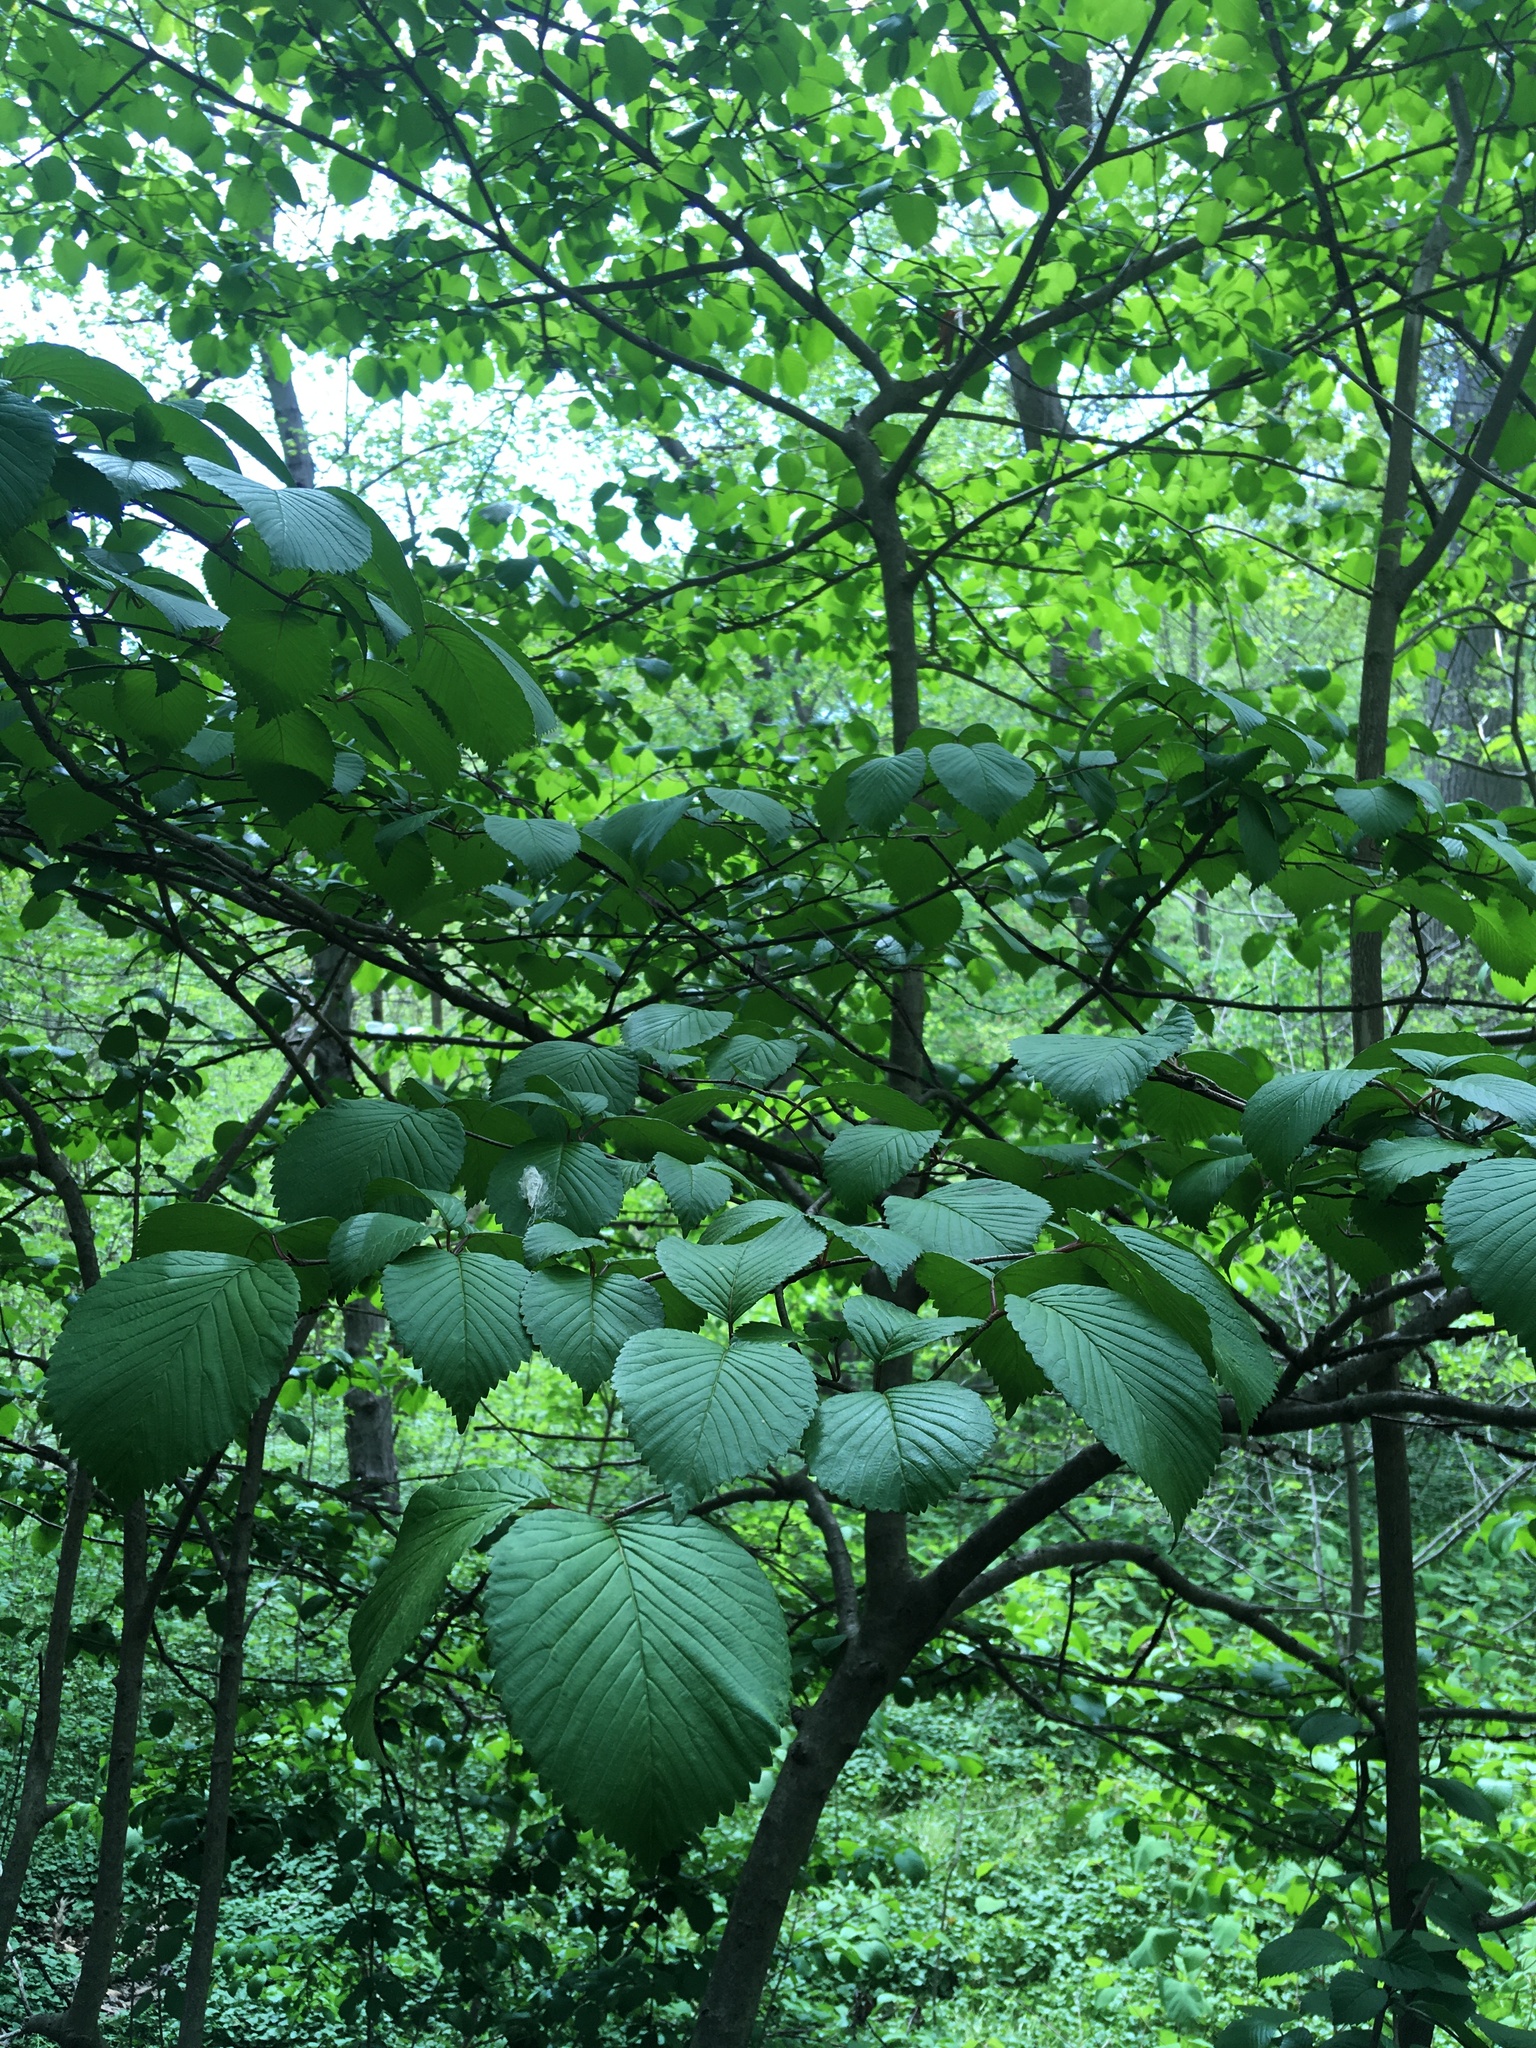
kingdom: Plantae
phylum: Tracheophyta
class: Magnoliopsida
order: Dipsacales
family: Viburnaceae
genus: Viburnum
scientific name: Viburnum plicatum
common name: Japanese snowball
